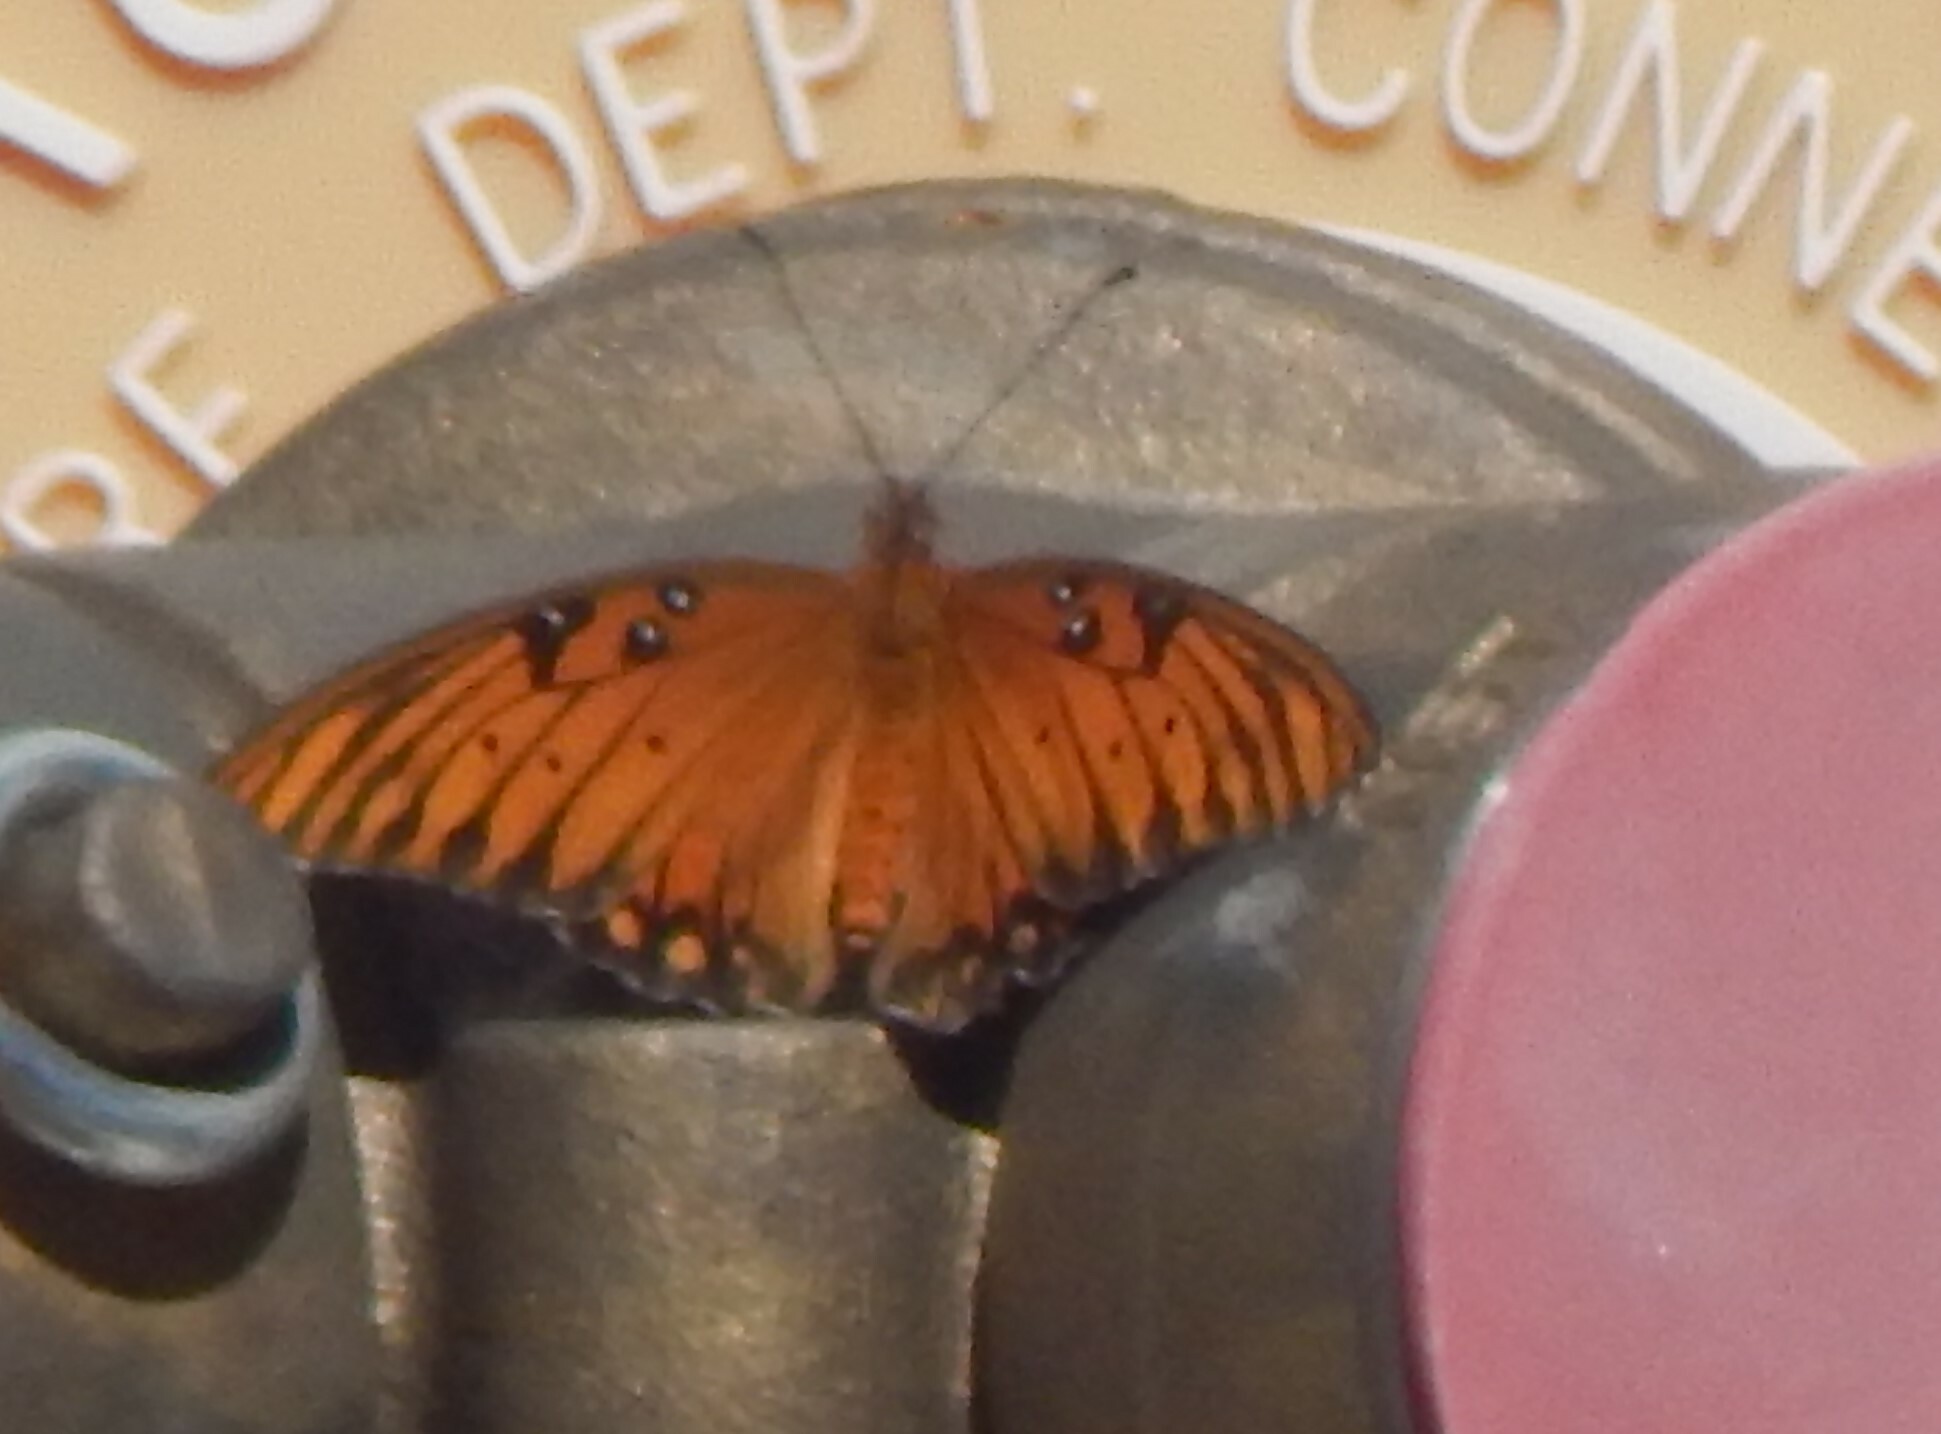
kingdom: Animalia
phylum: Arthropoda
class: Insecta
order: Lepidoptera
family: Nymphalidae
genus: Dione
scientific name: Dione vanillae
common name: Gulf fritillary
